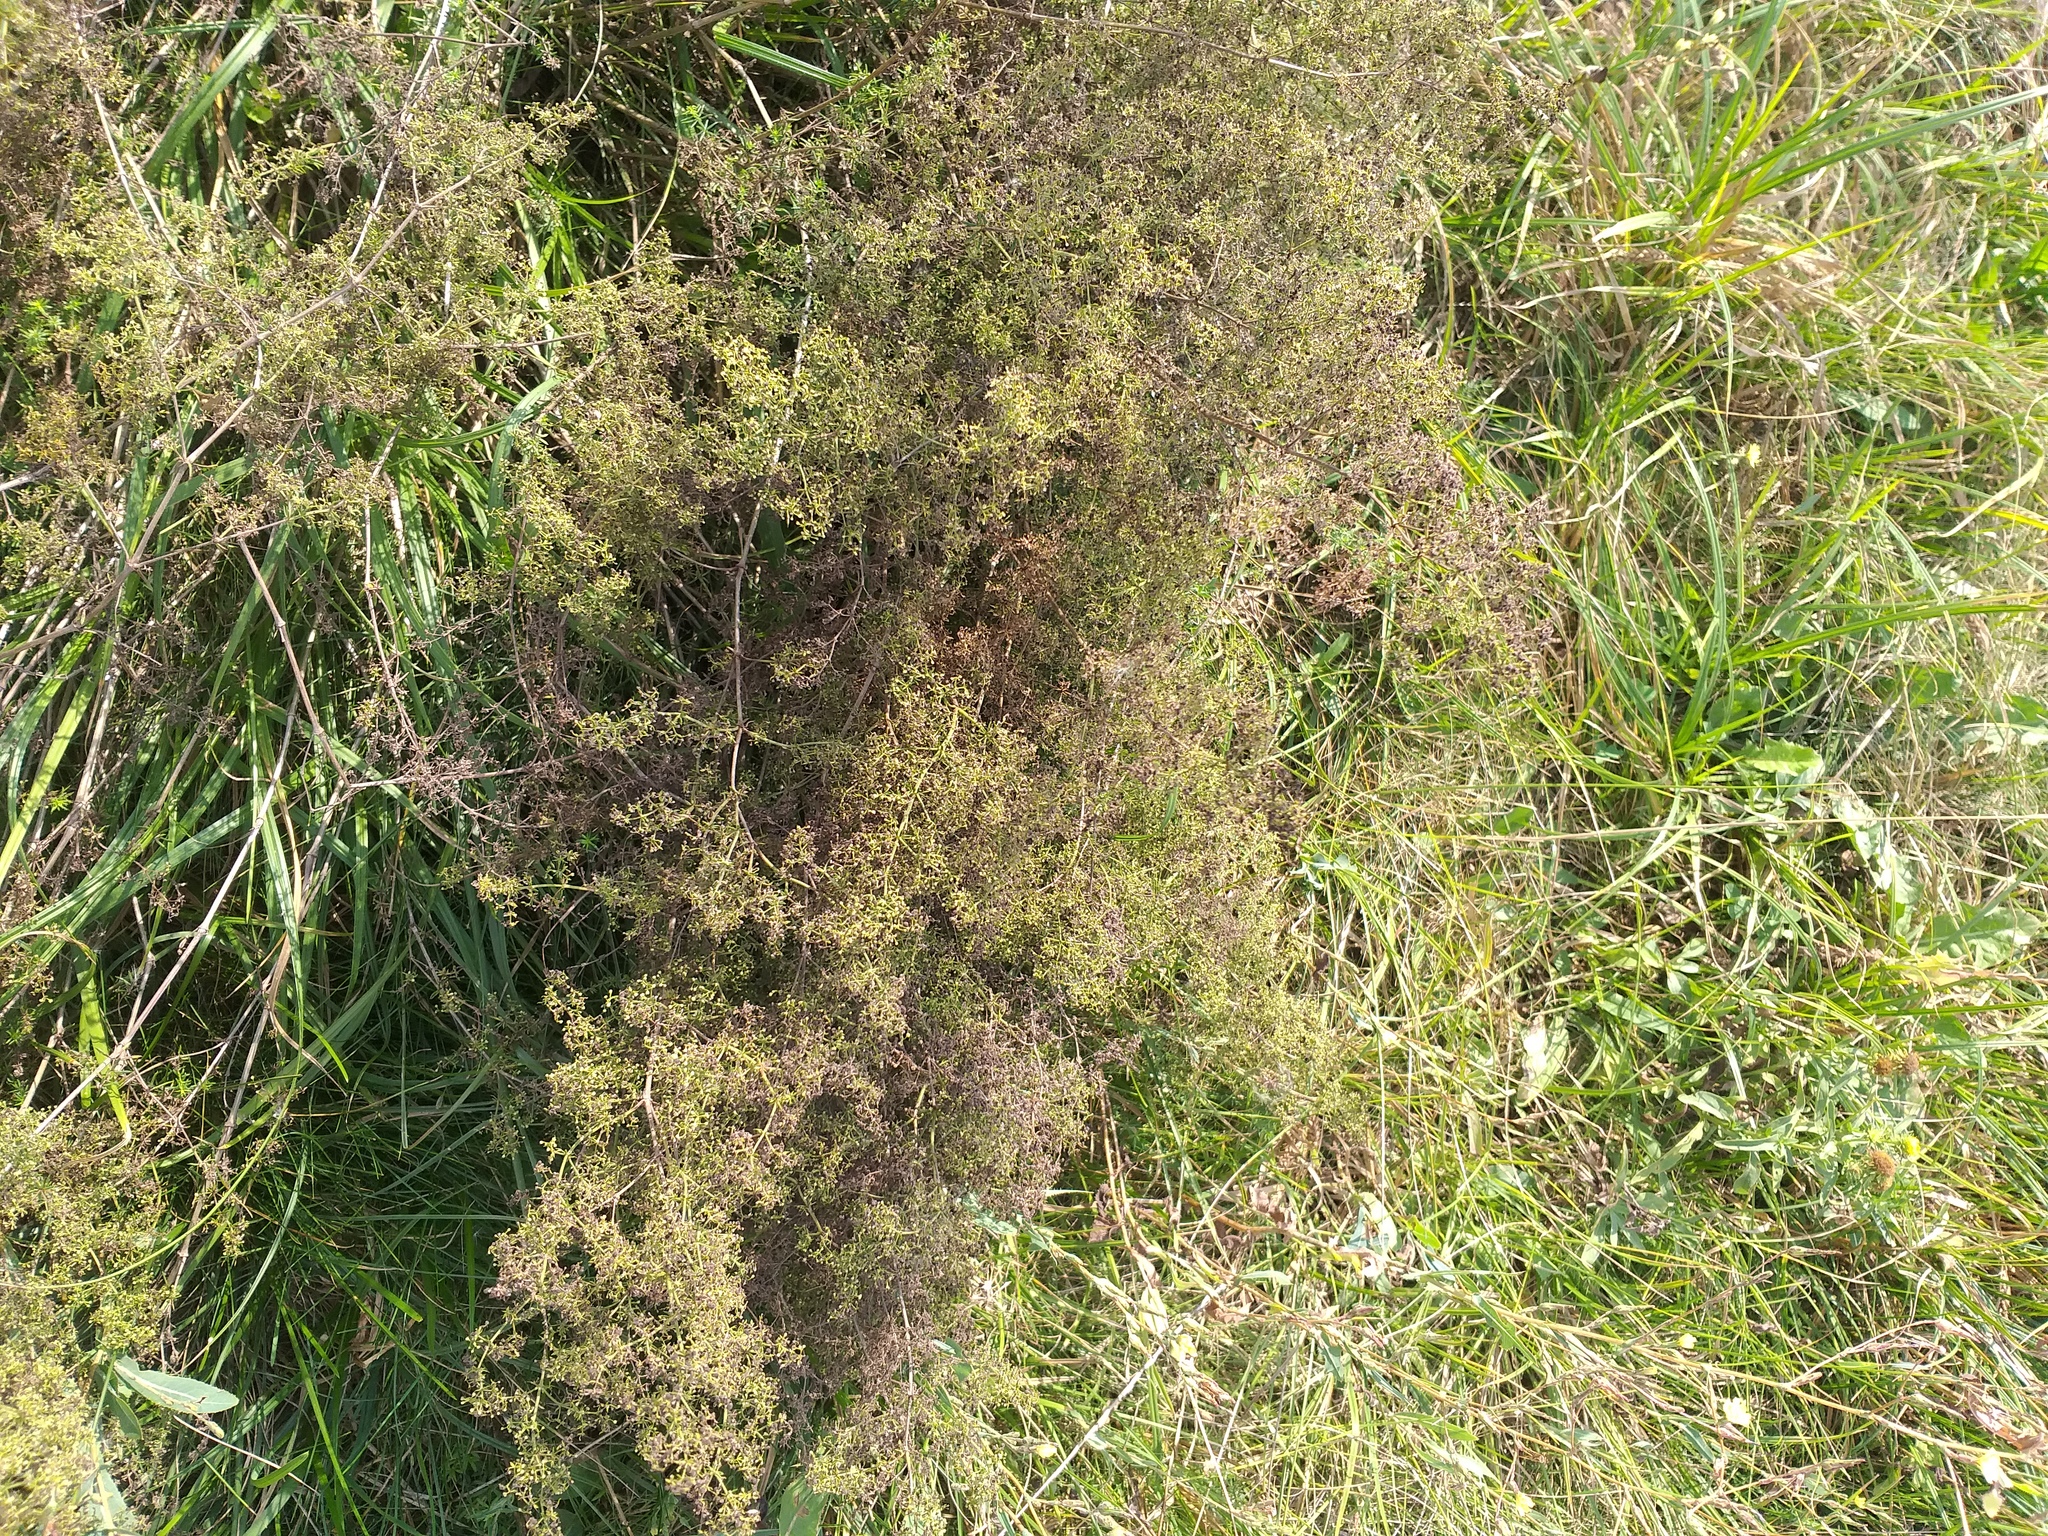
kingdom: Plantae
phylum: Tracheophyta
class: Magnoliopsida
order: Gentianales
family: Rubiaceae
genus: Galium
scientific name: Galium mollugo
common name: Hedge bedstraw
